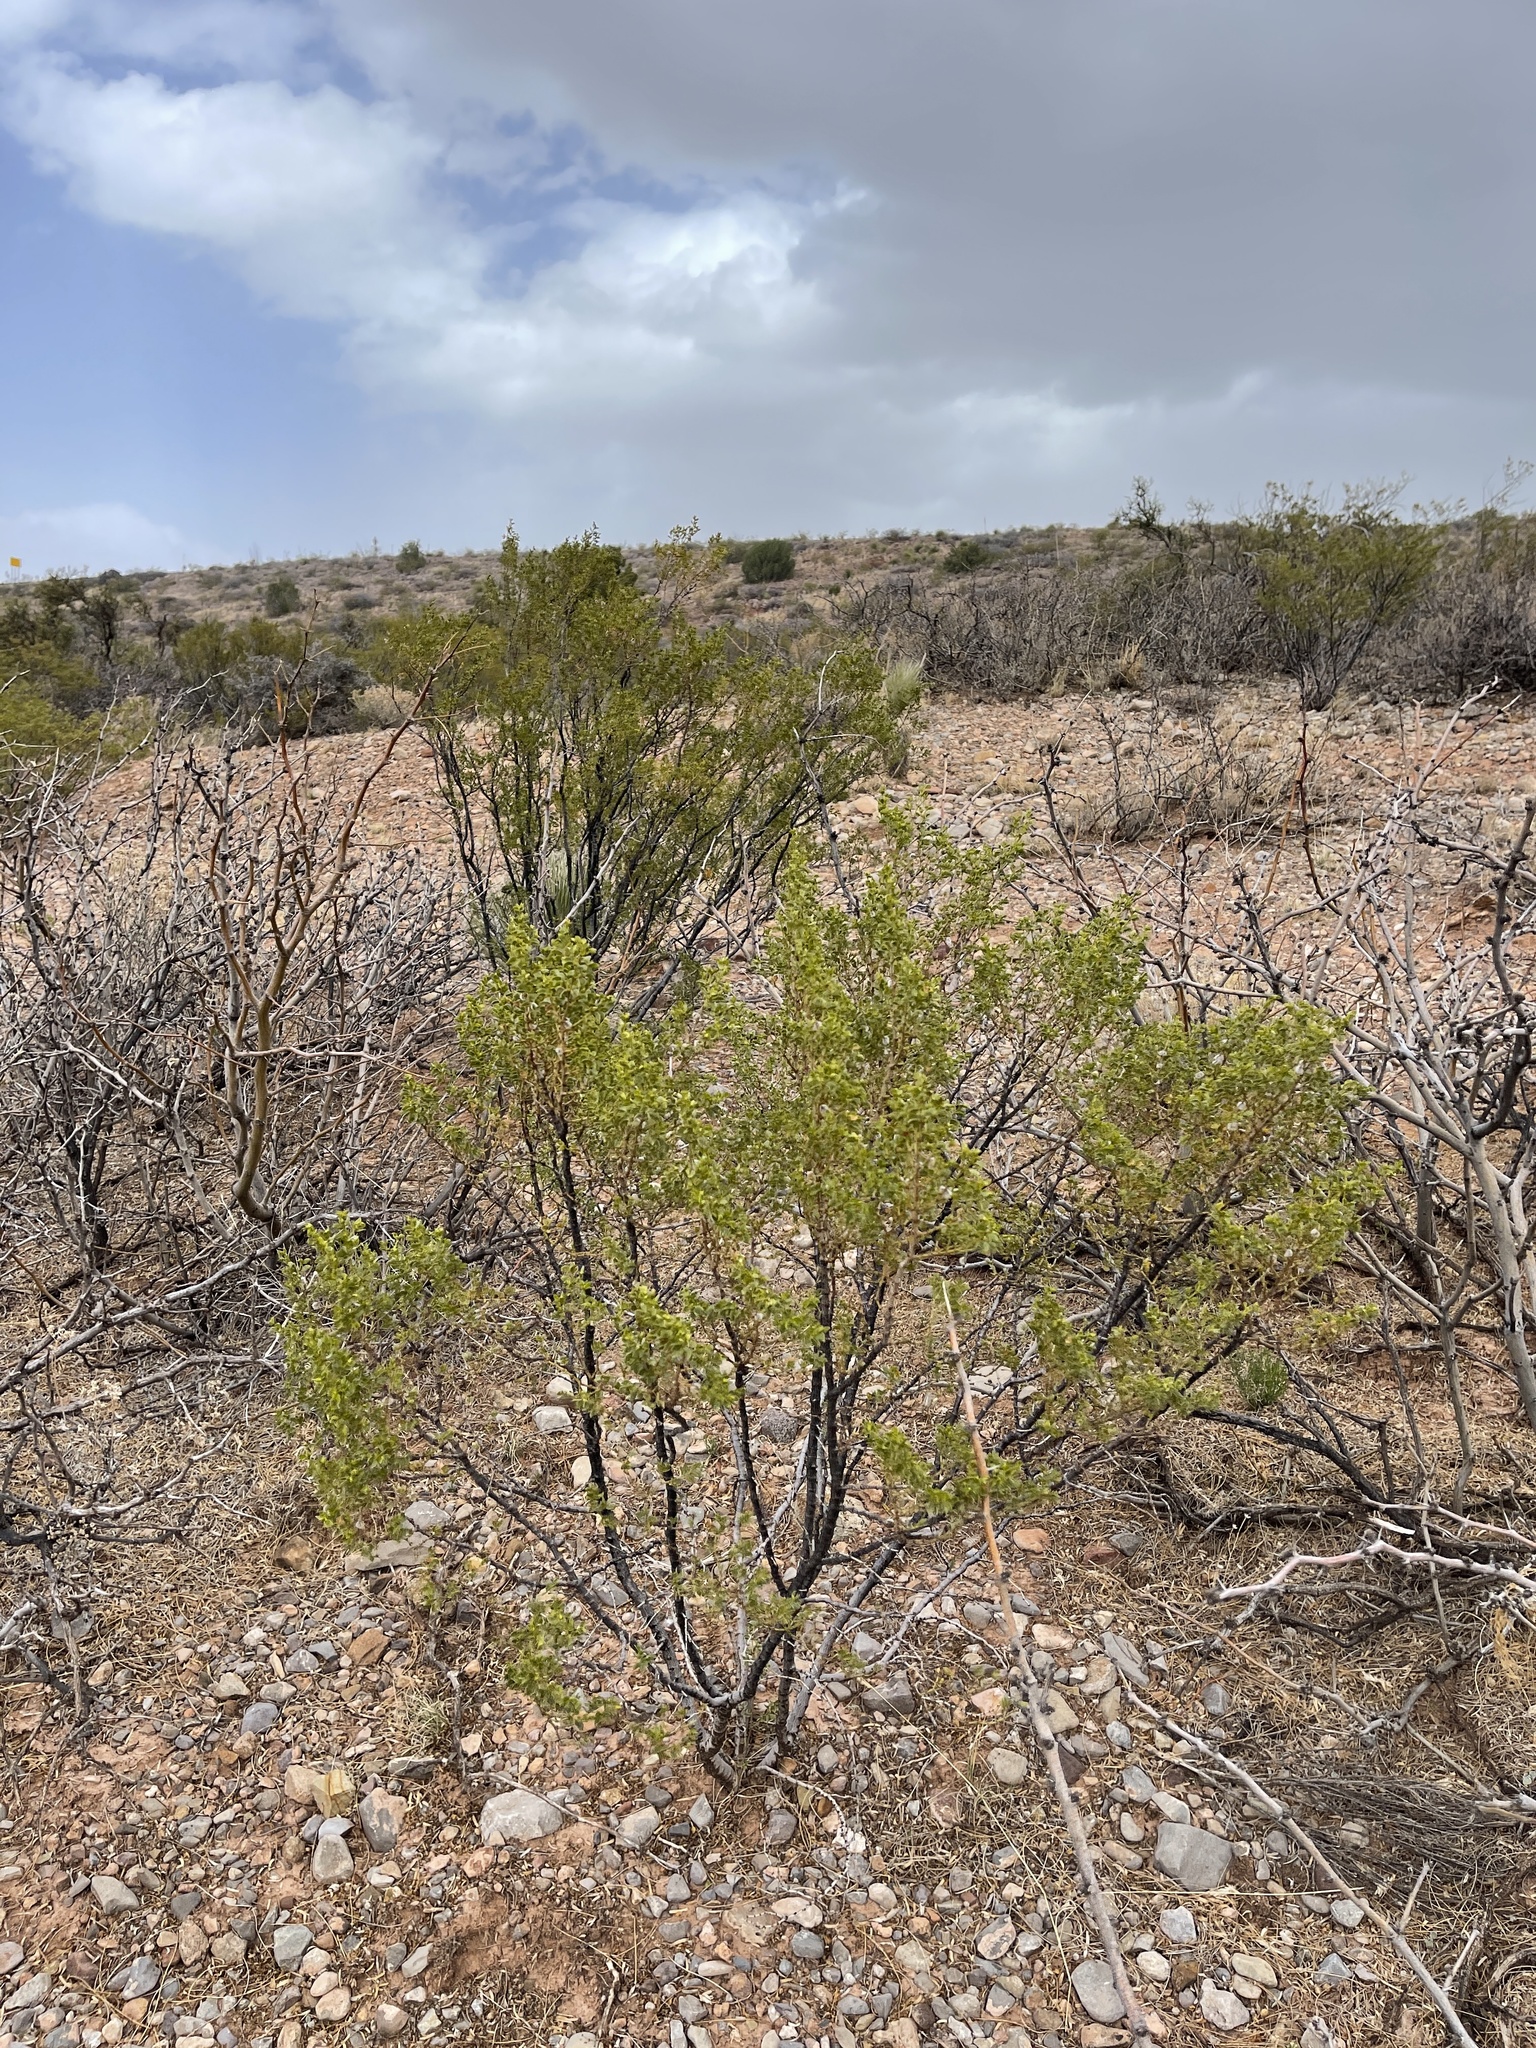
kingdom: Plantae
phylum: Tracheophyta
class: Magnoliopsida
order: Zygophyllales
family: Zygophyllaceae
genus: Larrea
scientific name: Larrea tridentata
